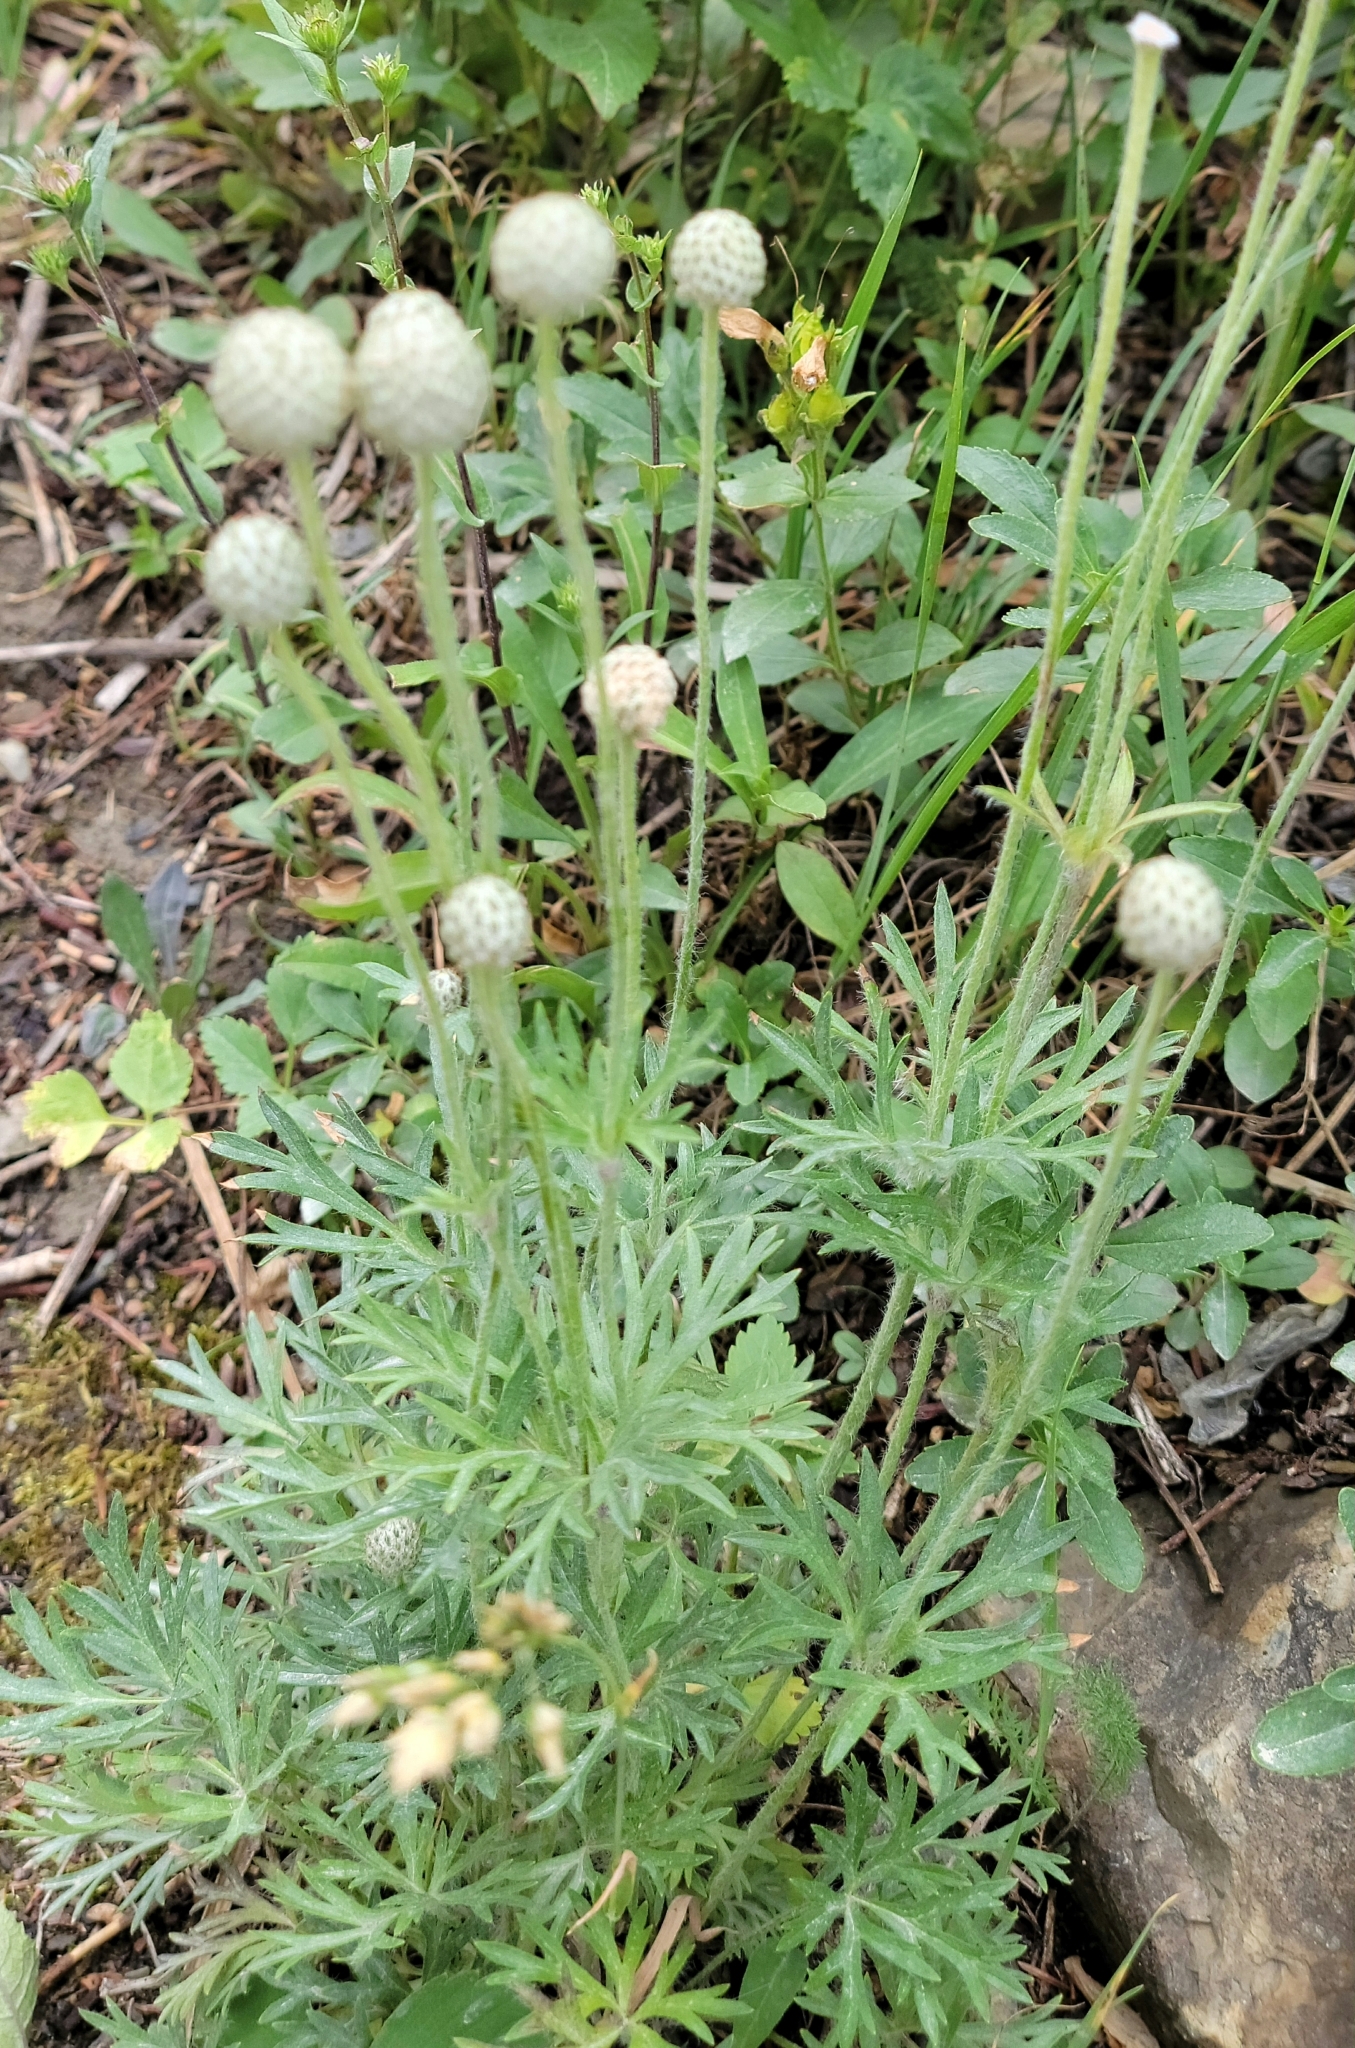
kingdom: Plantae
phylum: Tracheophyta
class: Magnoliopsida
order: Ranunculales
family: Ranunculaceae
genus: Anemone
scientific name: Anemone multifida
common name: Bird's-foot anemone
